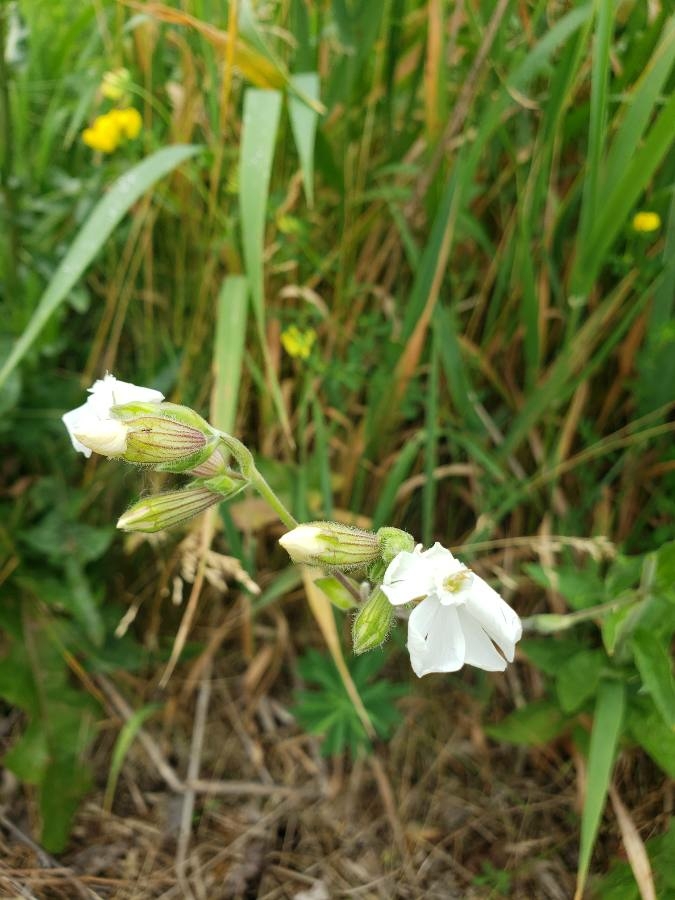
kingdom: Plantae
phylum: Tracheophyta
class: Magnoliopsida
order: Caryophyllales
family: Caryophyllaceae
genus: Silene
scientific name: Silene latifolia
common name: White campion
